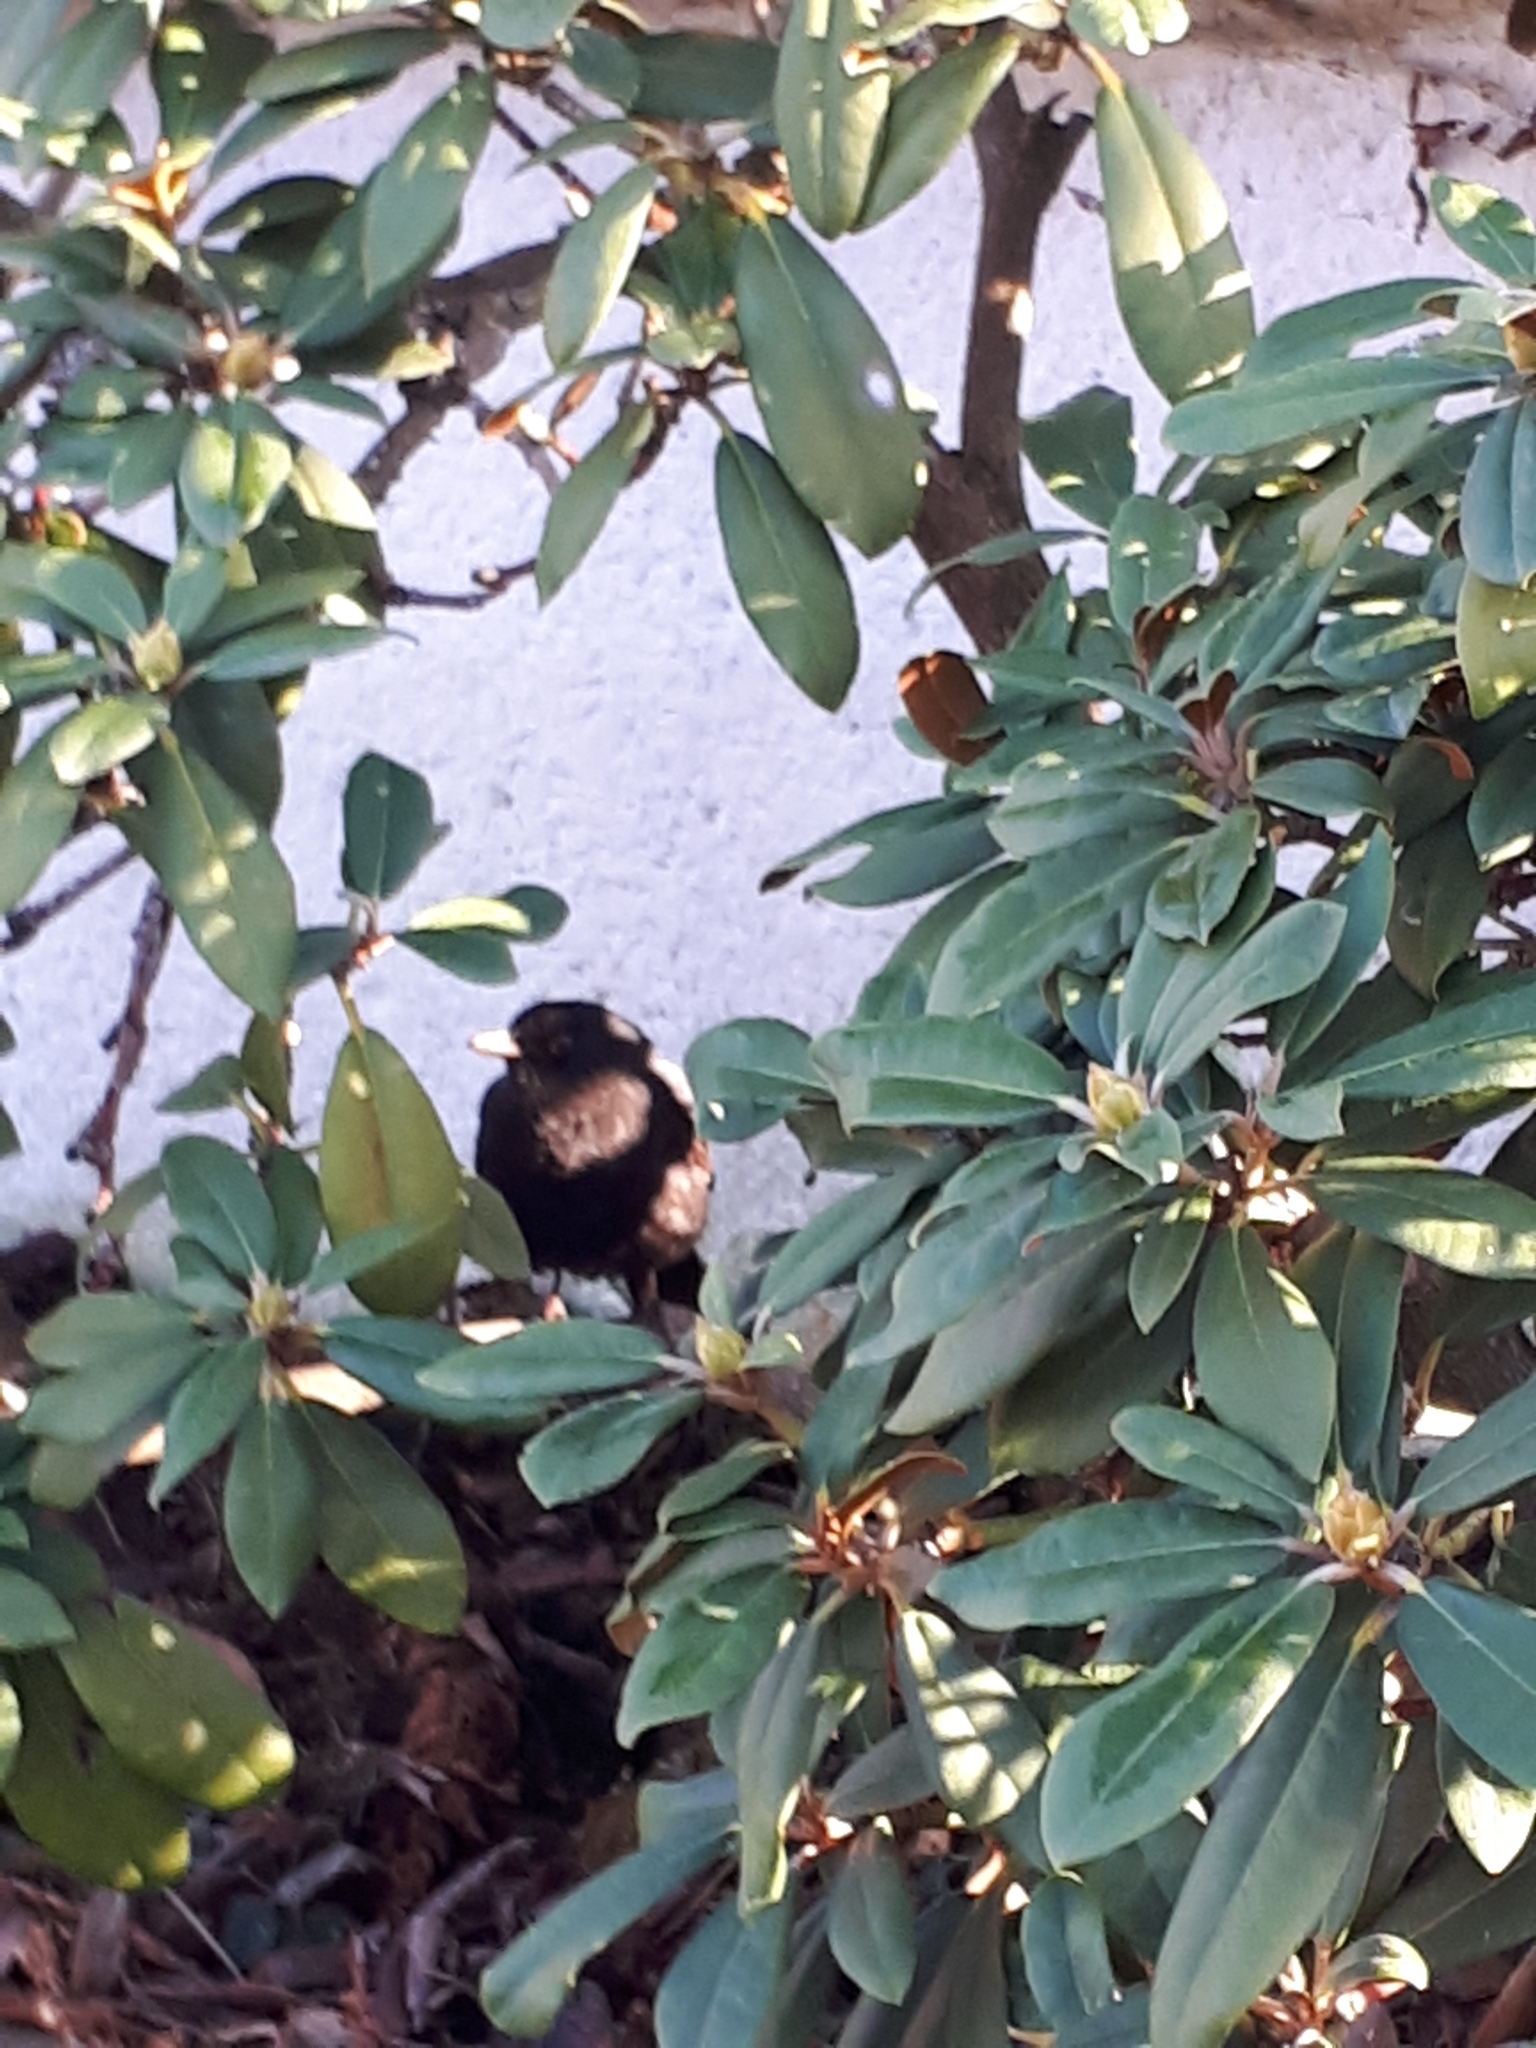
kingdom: Animalia
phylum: Chordata
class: Aves
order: Passeriformes
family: Turdidae
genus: Turdus
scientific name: Turdus merula
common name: Common blackbird
